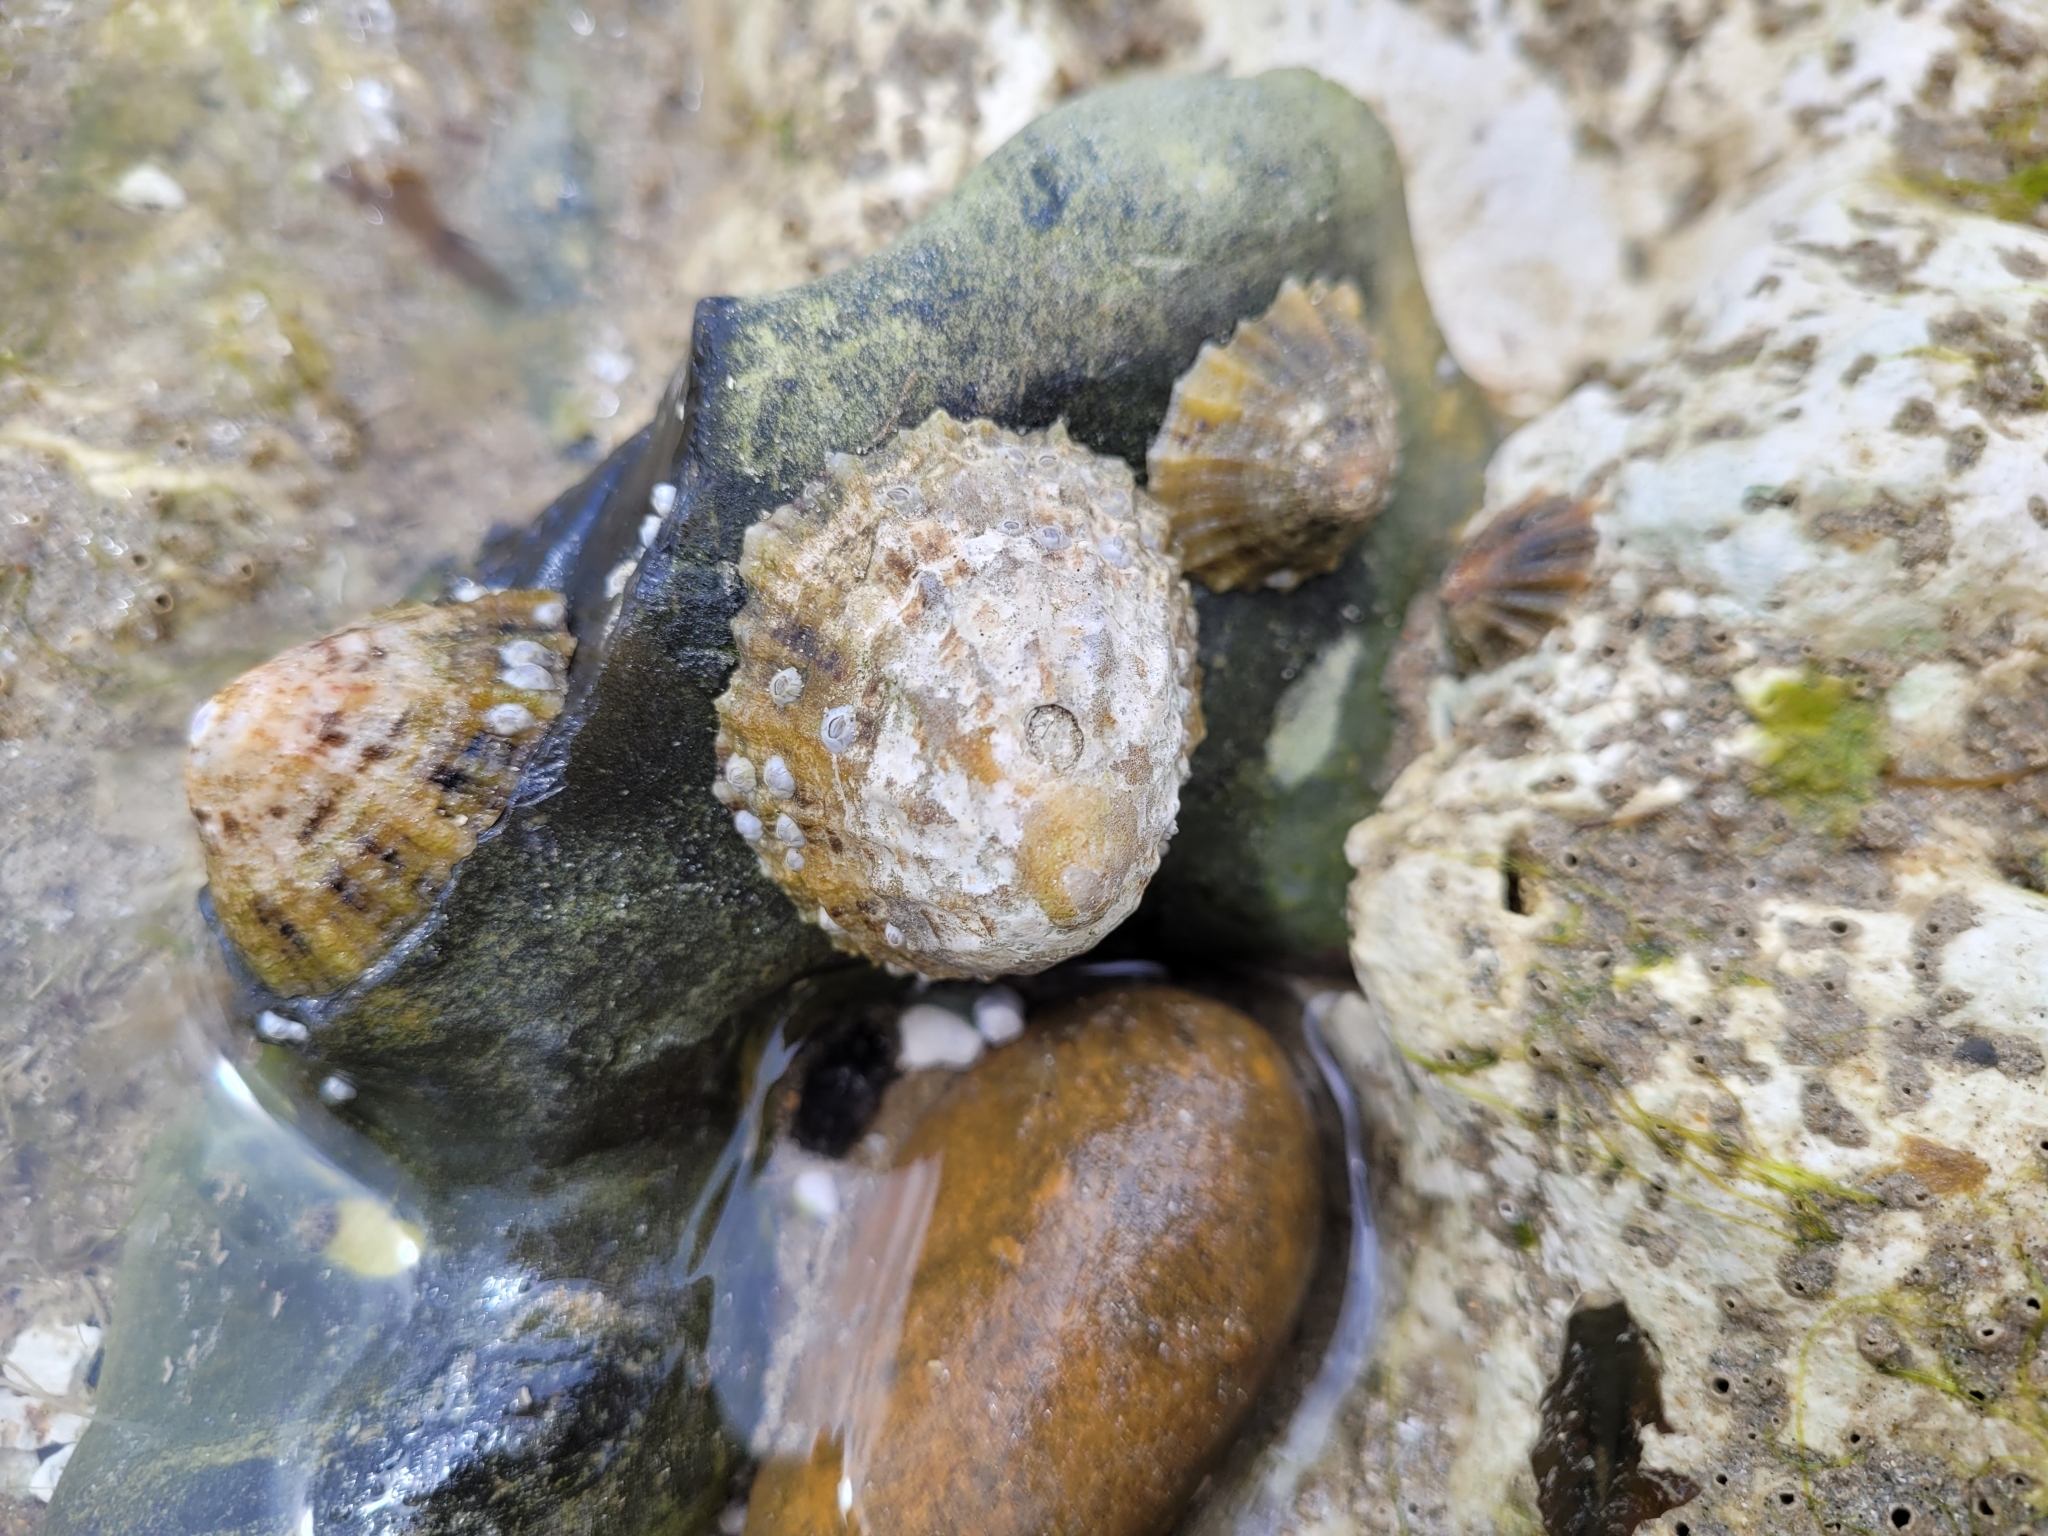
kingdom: Animalia
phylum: Mollusca
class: Gastropoda
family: Patellidae
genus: Patella
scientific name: Patella vulgata
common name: Common limpet
